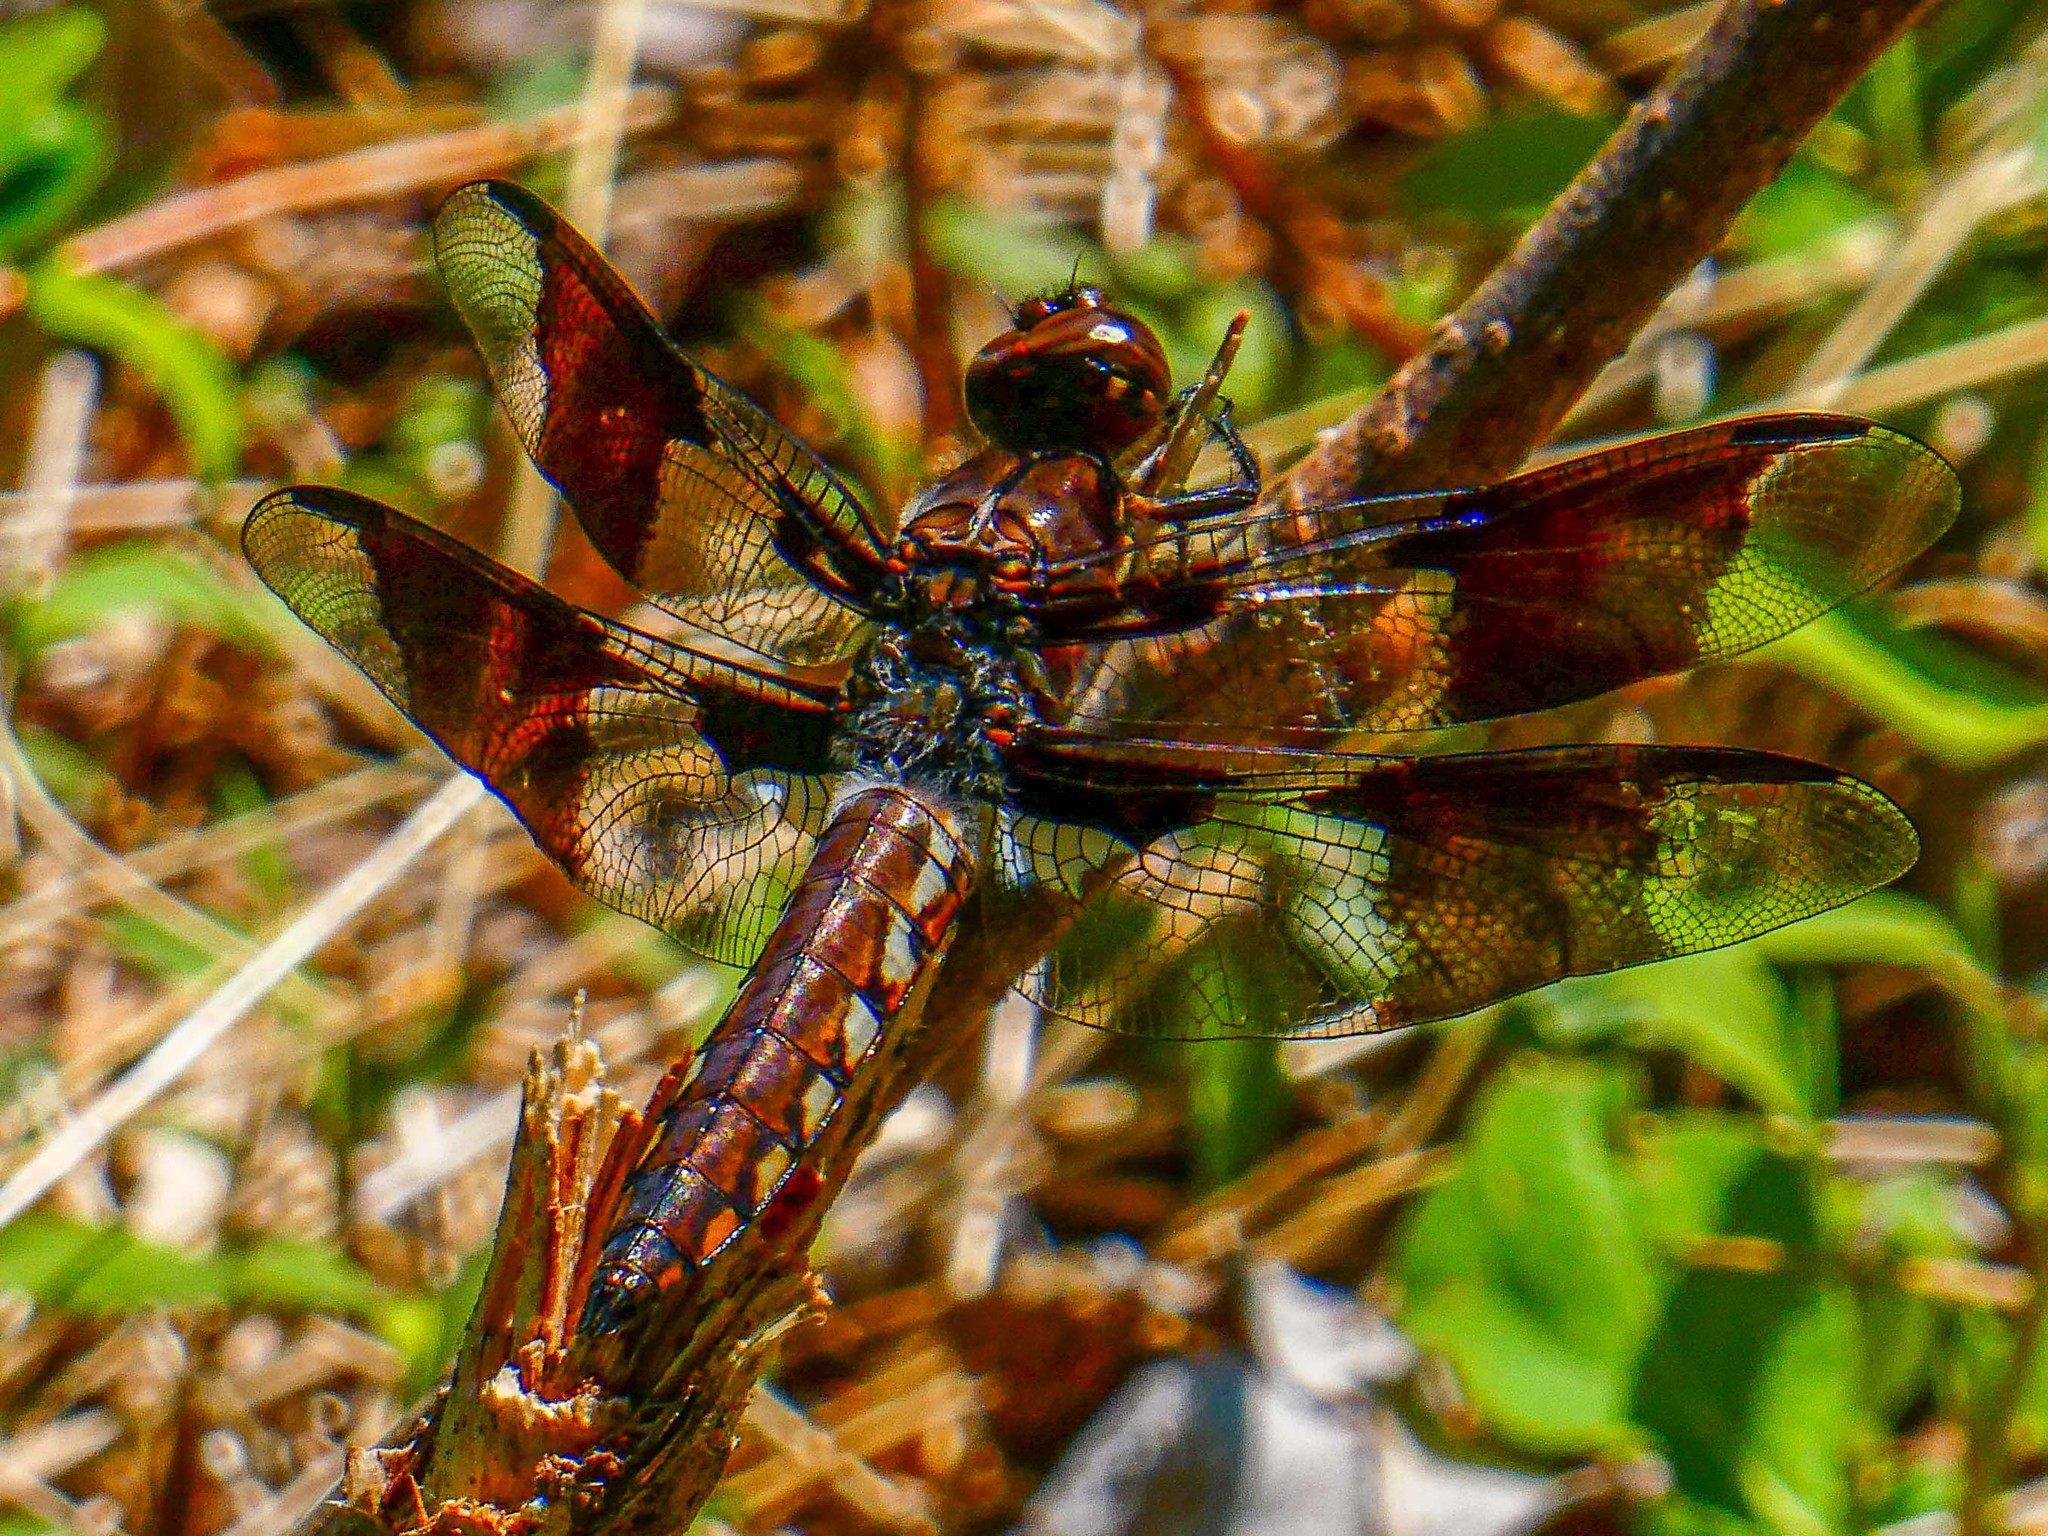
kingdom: Animalia
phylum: Arthropoda
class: Insecta
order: Odonata
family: Libellulidae
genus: Plathemis
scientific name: Plathemis lydia
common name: Common whitetail
